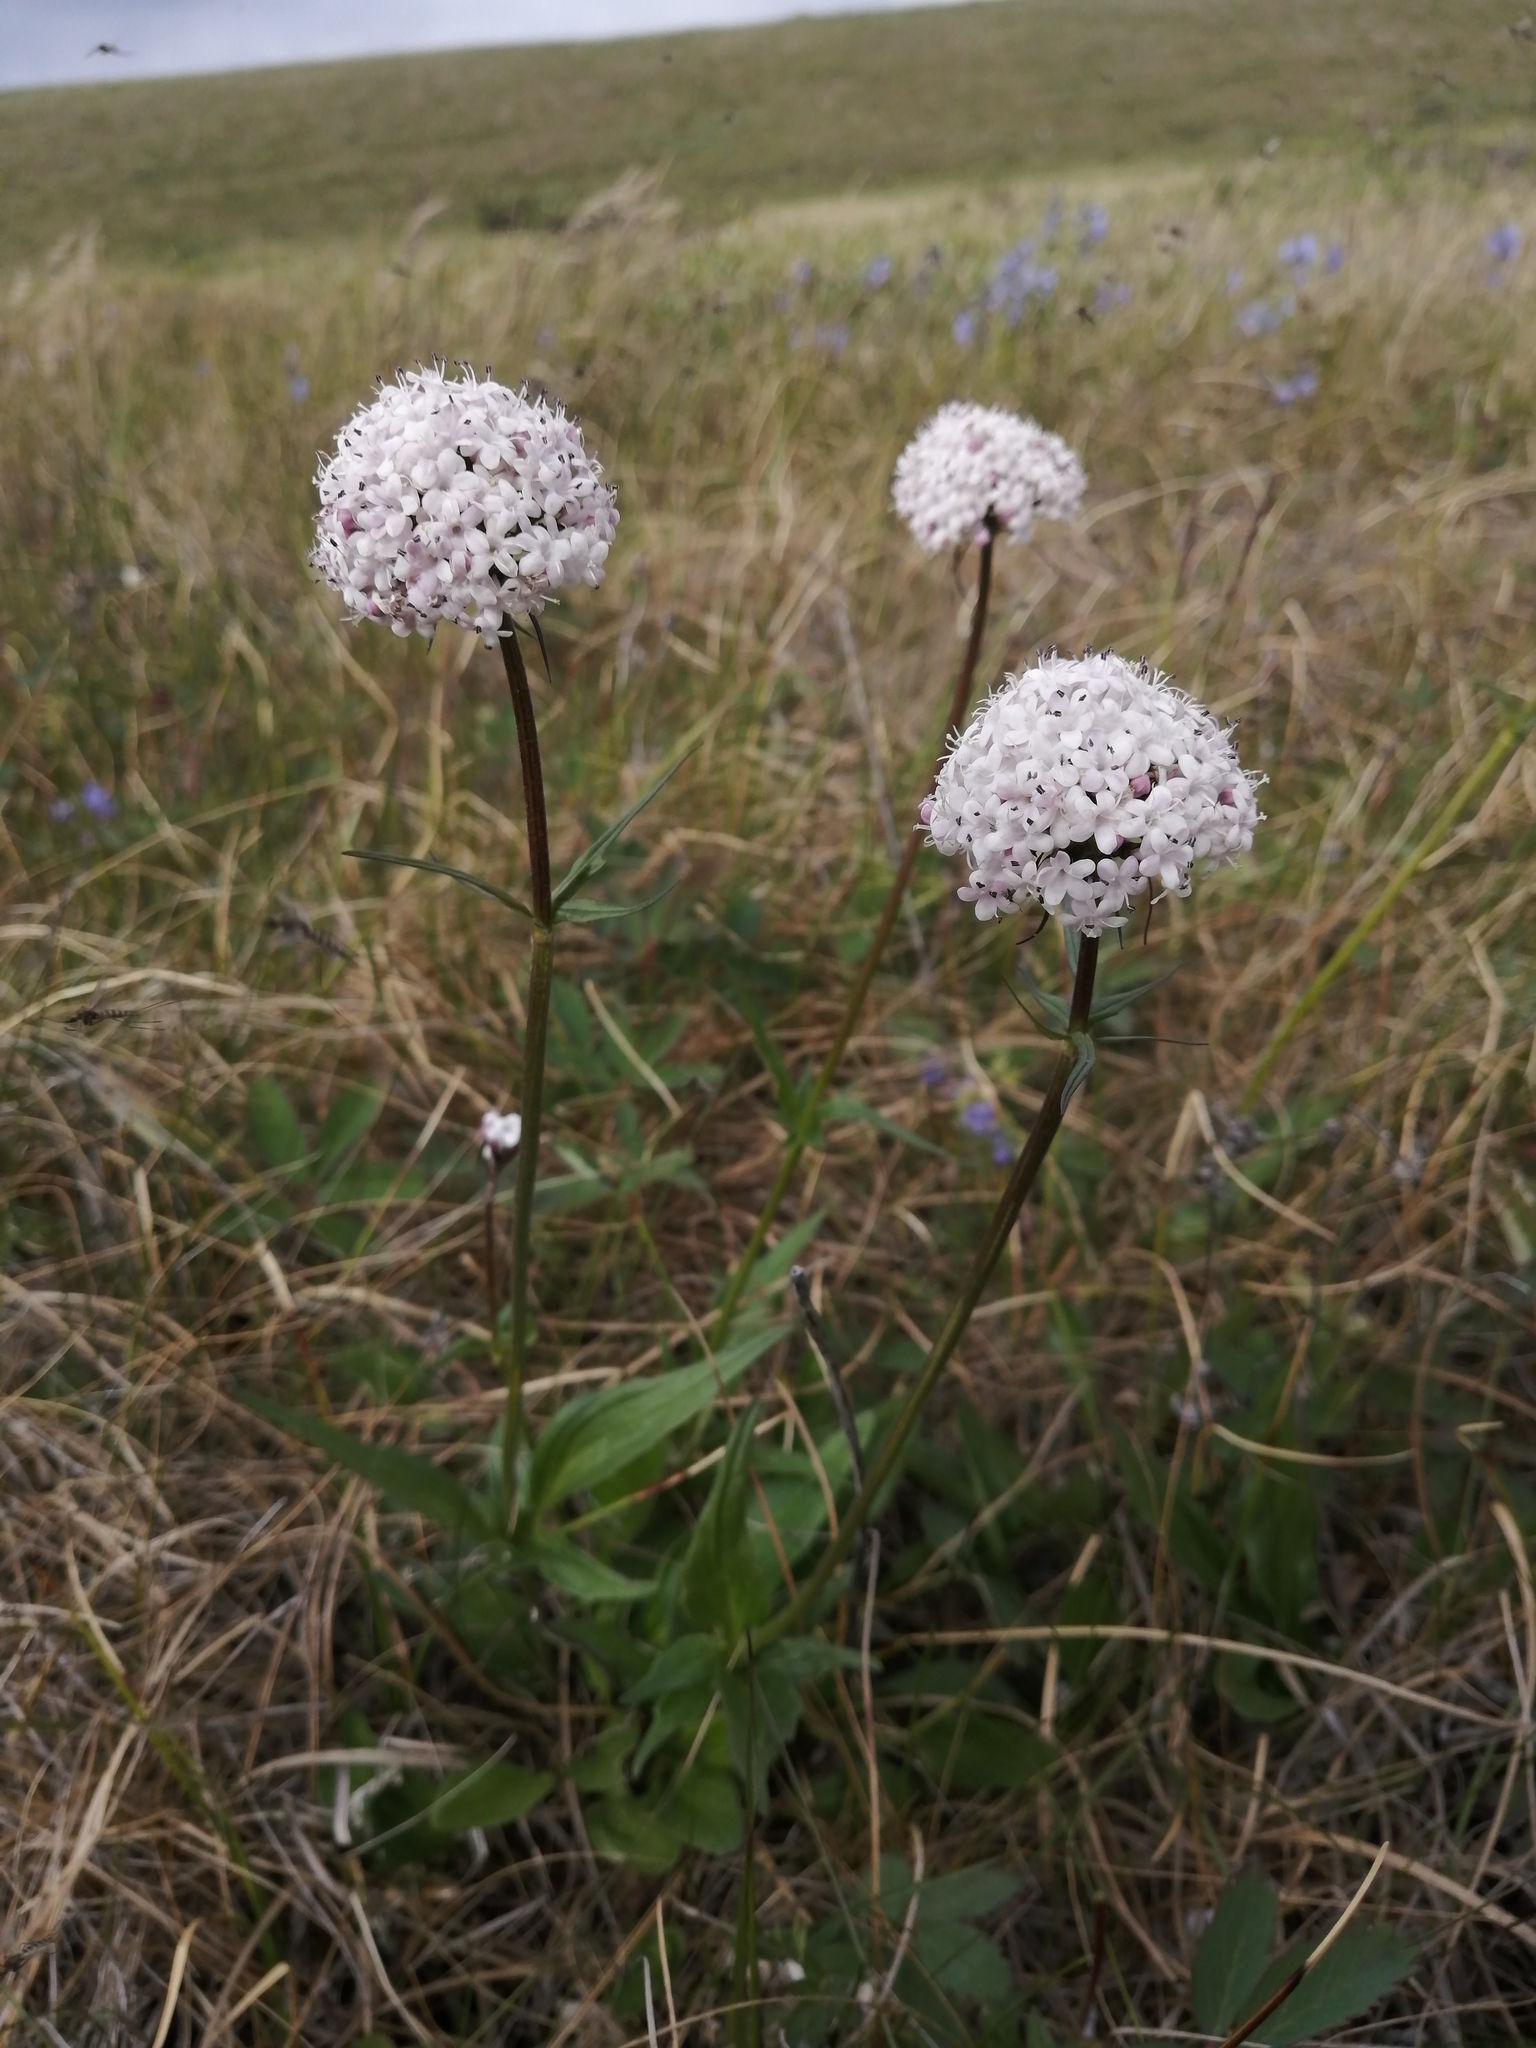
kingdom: Plantae
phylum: Tracheophyta
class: Magnoliopsida
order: Dipsacales
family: Caprifoliaceae
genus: Valeriana
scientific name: Valeriana capitata
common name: Capitate valerian
